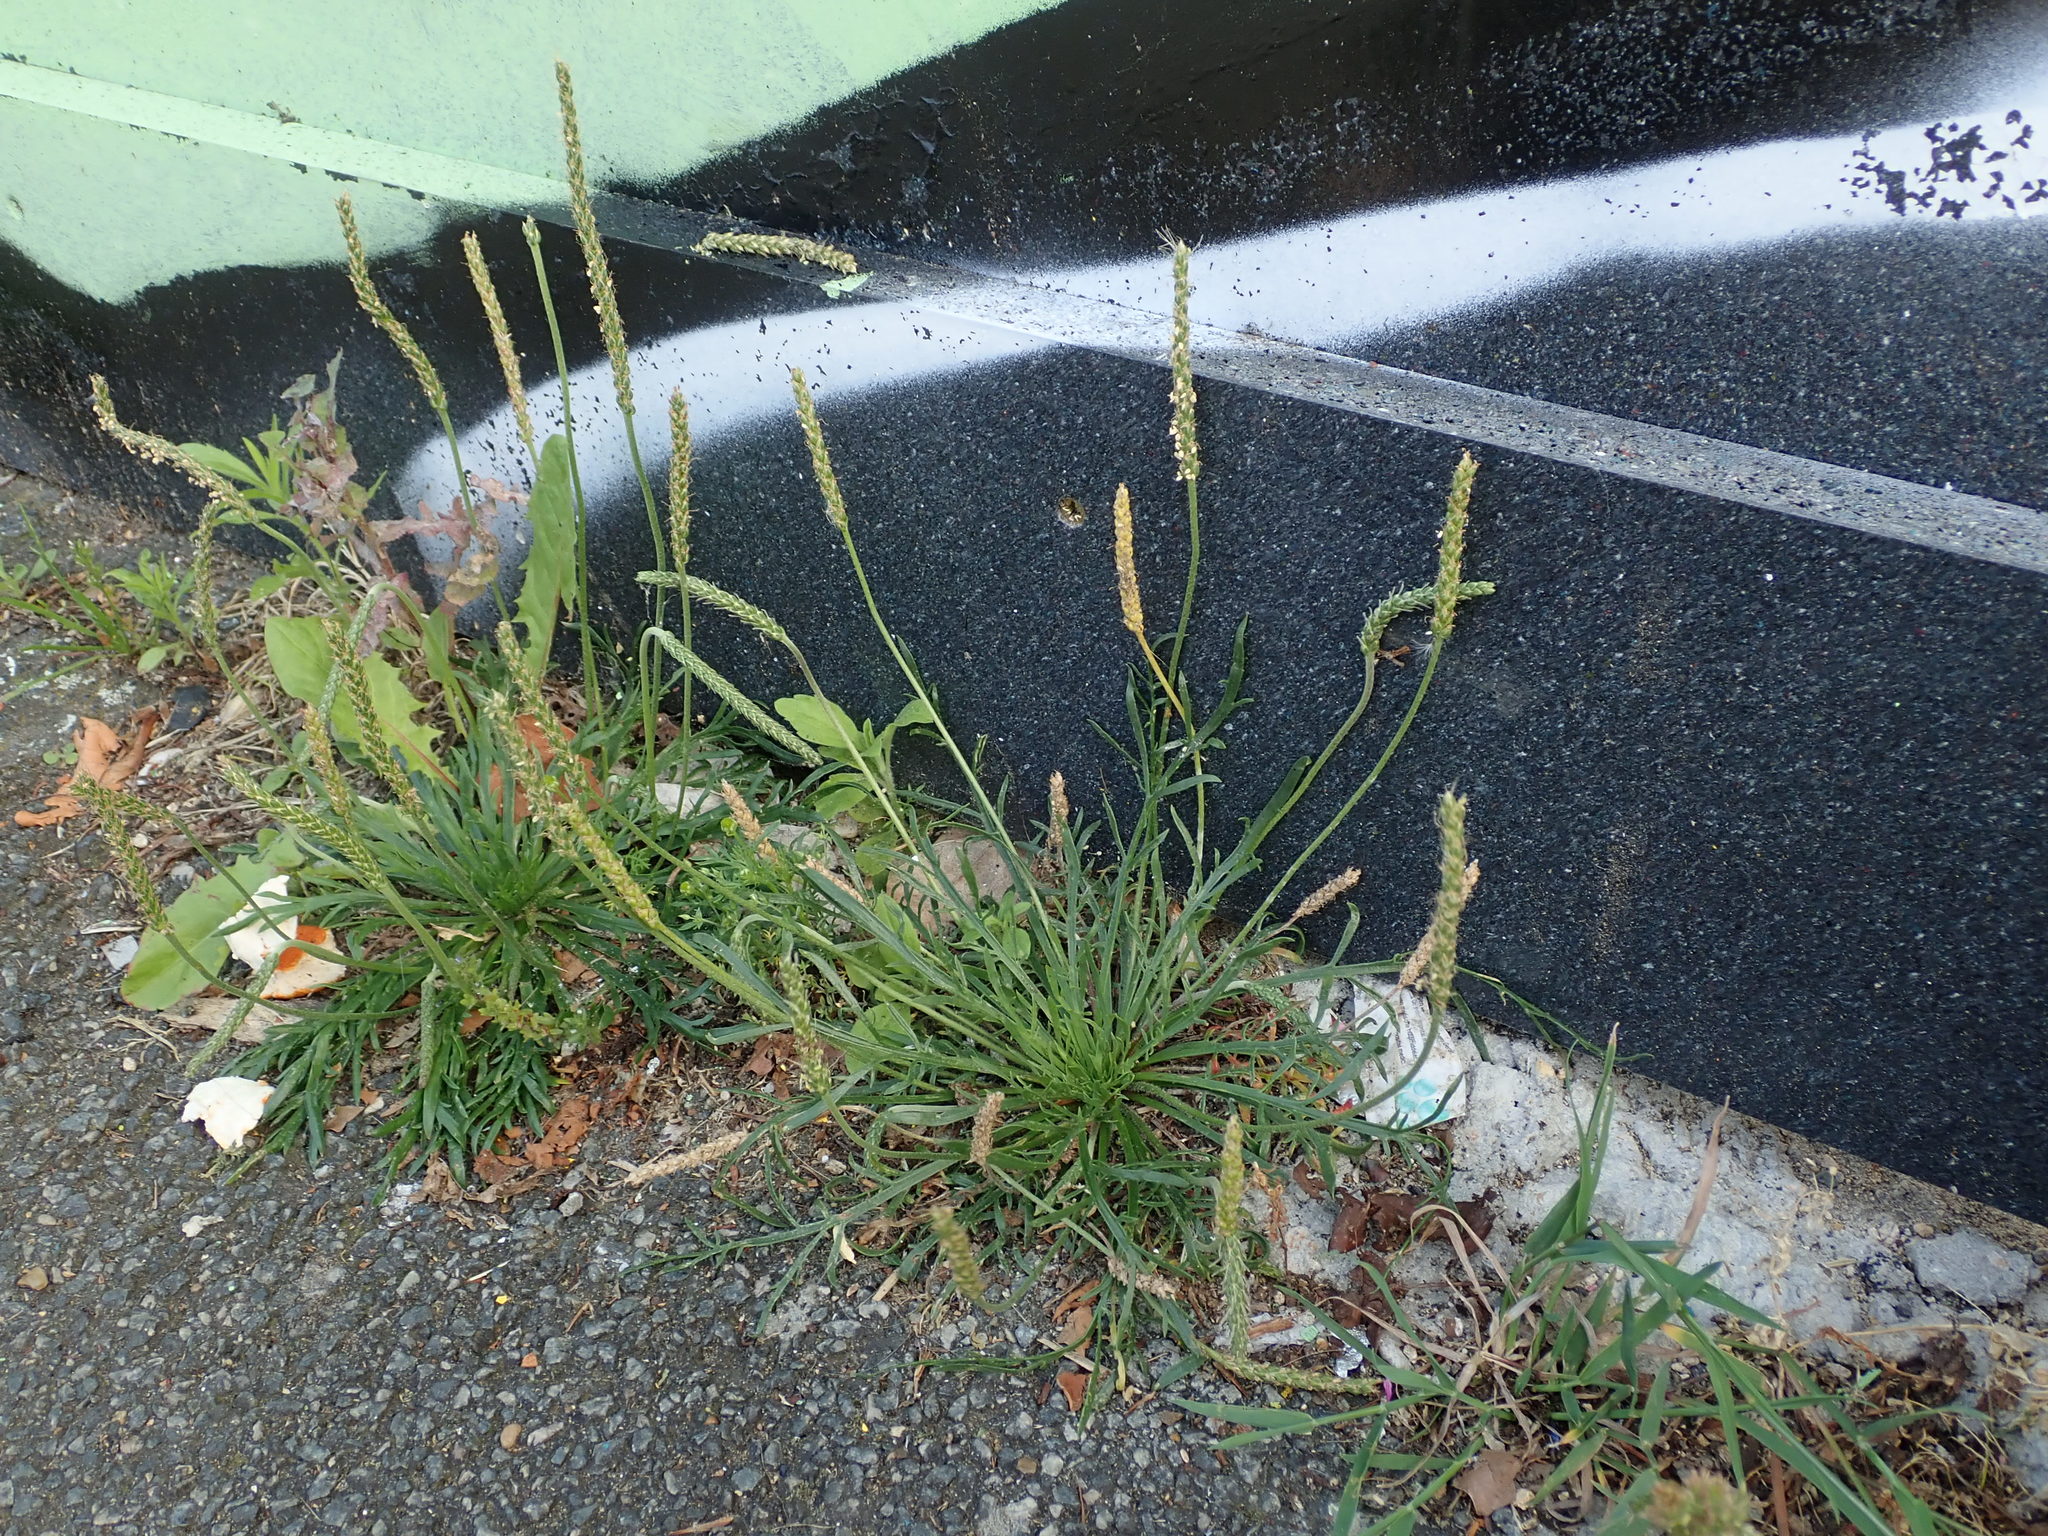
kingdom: Plantae
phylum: Tracheophyta
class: Magnoliopsida
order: Lamiales
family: Plantaginaceae
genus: Plantago
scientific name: Plantago coronopus
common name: Buck's-horn plantain
